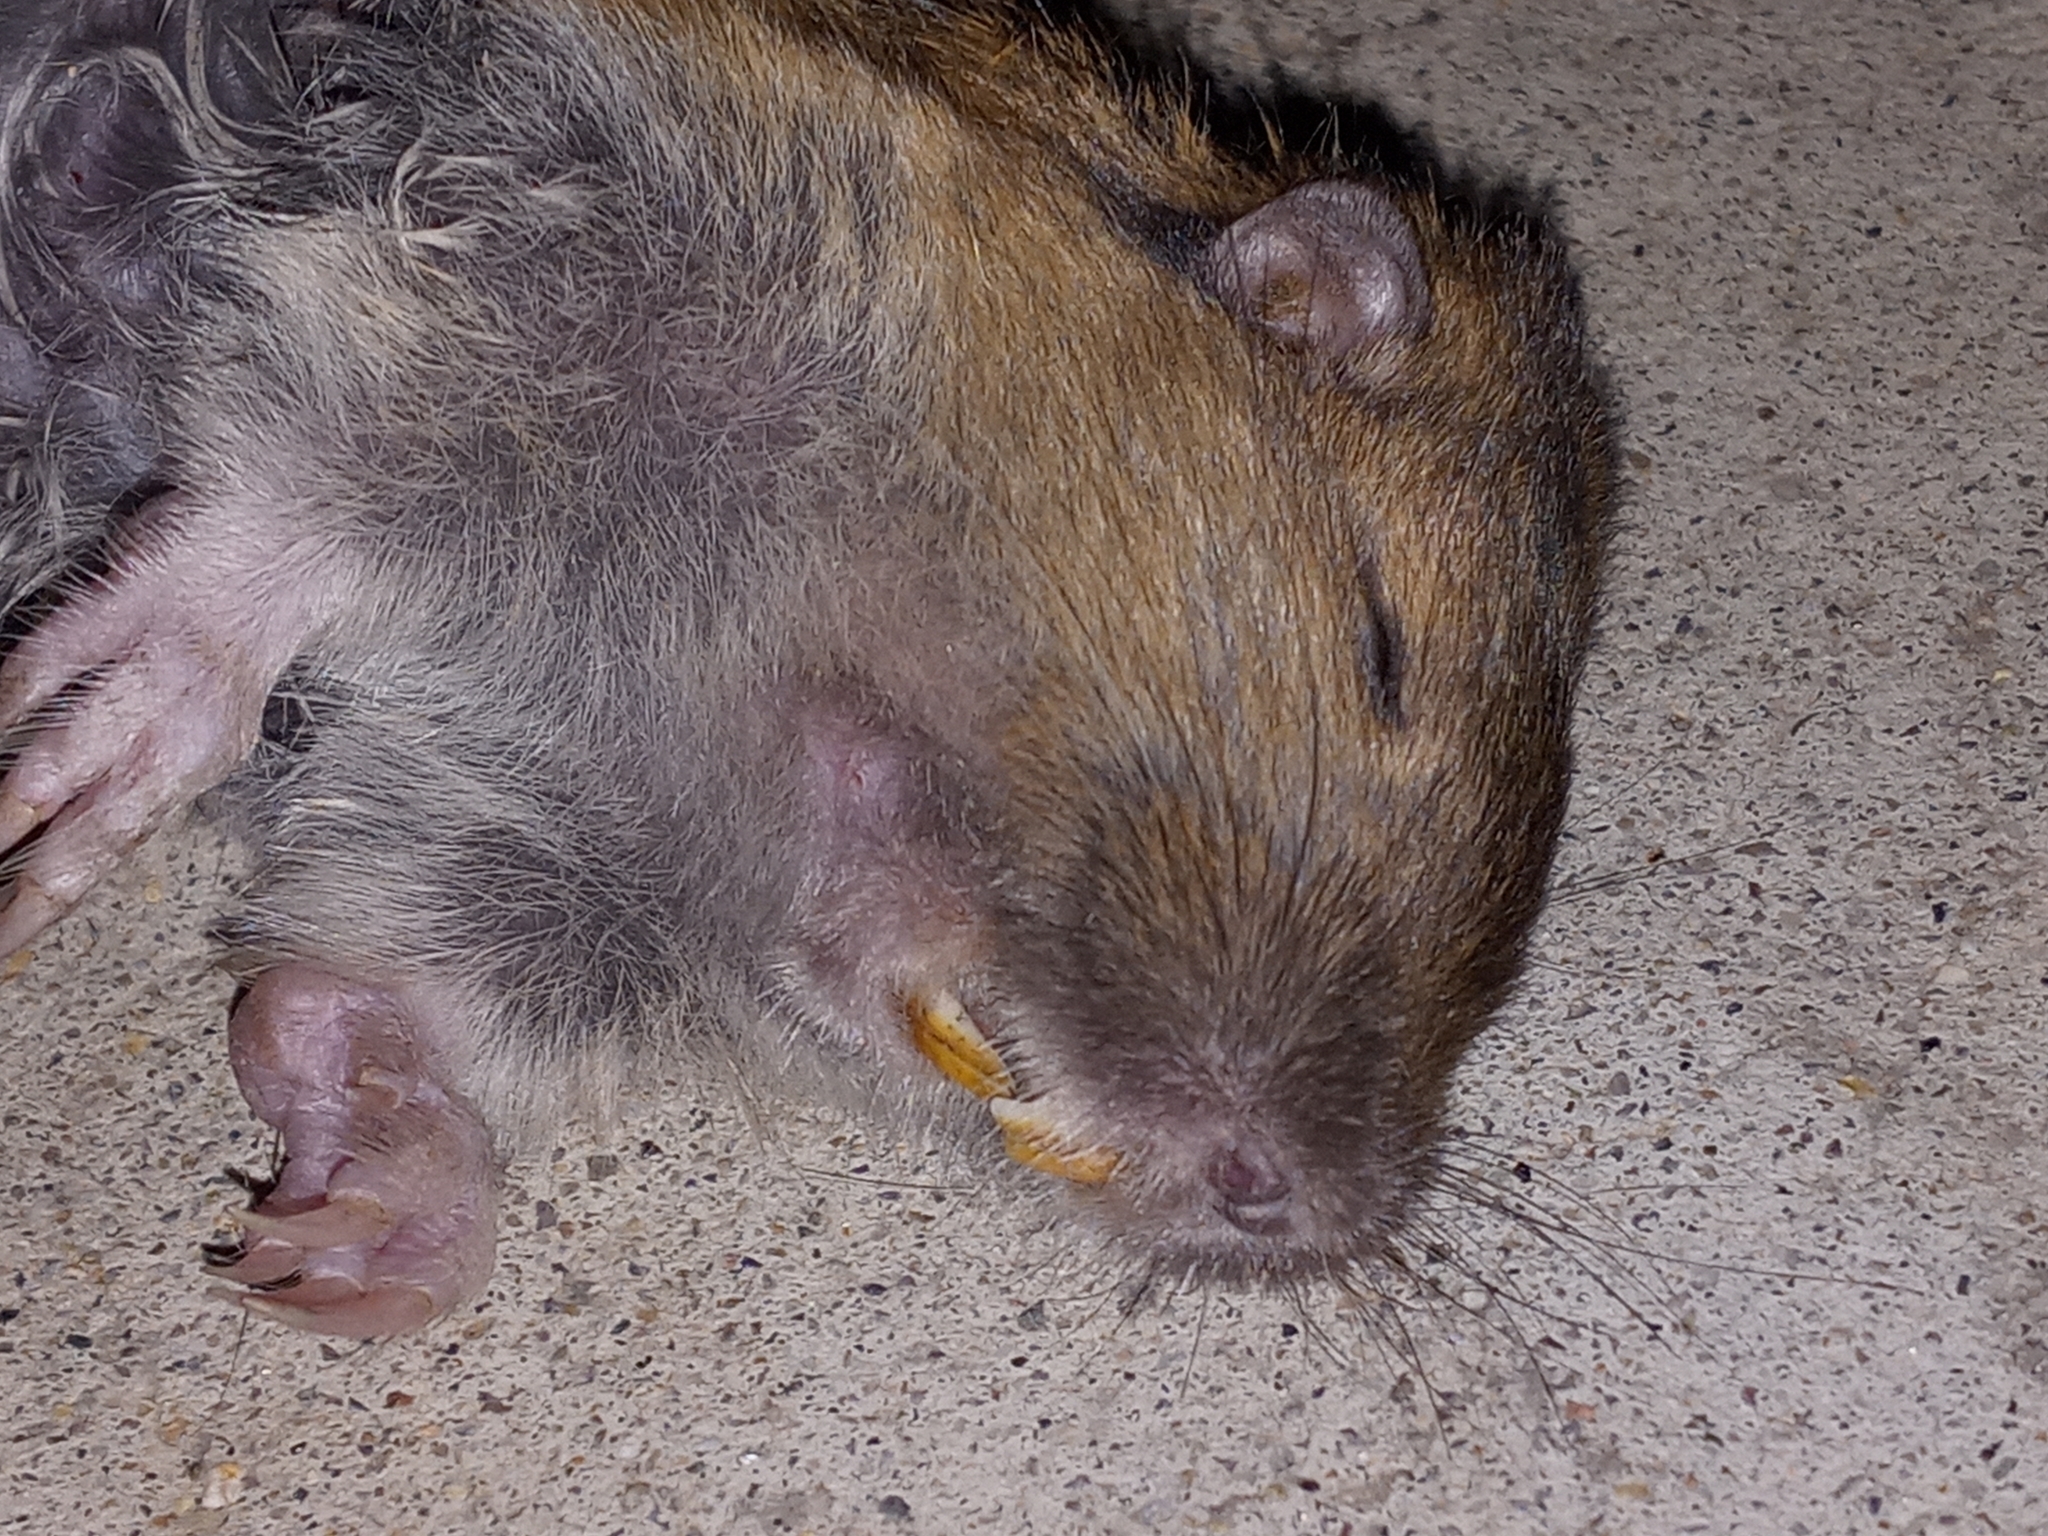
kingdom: Animalia
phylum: Chordata
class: Mammalia
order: Rodentia
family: Geomyidae
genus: Thomomys
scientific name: Thomomys bottae
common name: Botta's pocket gopher
